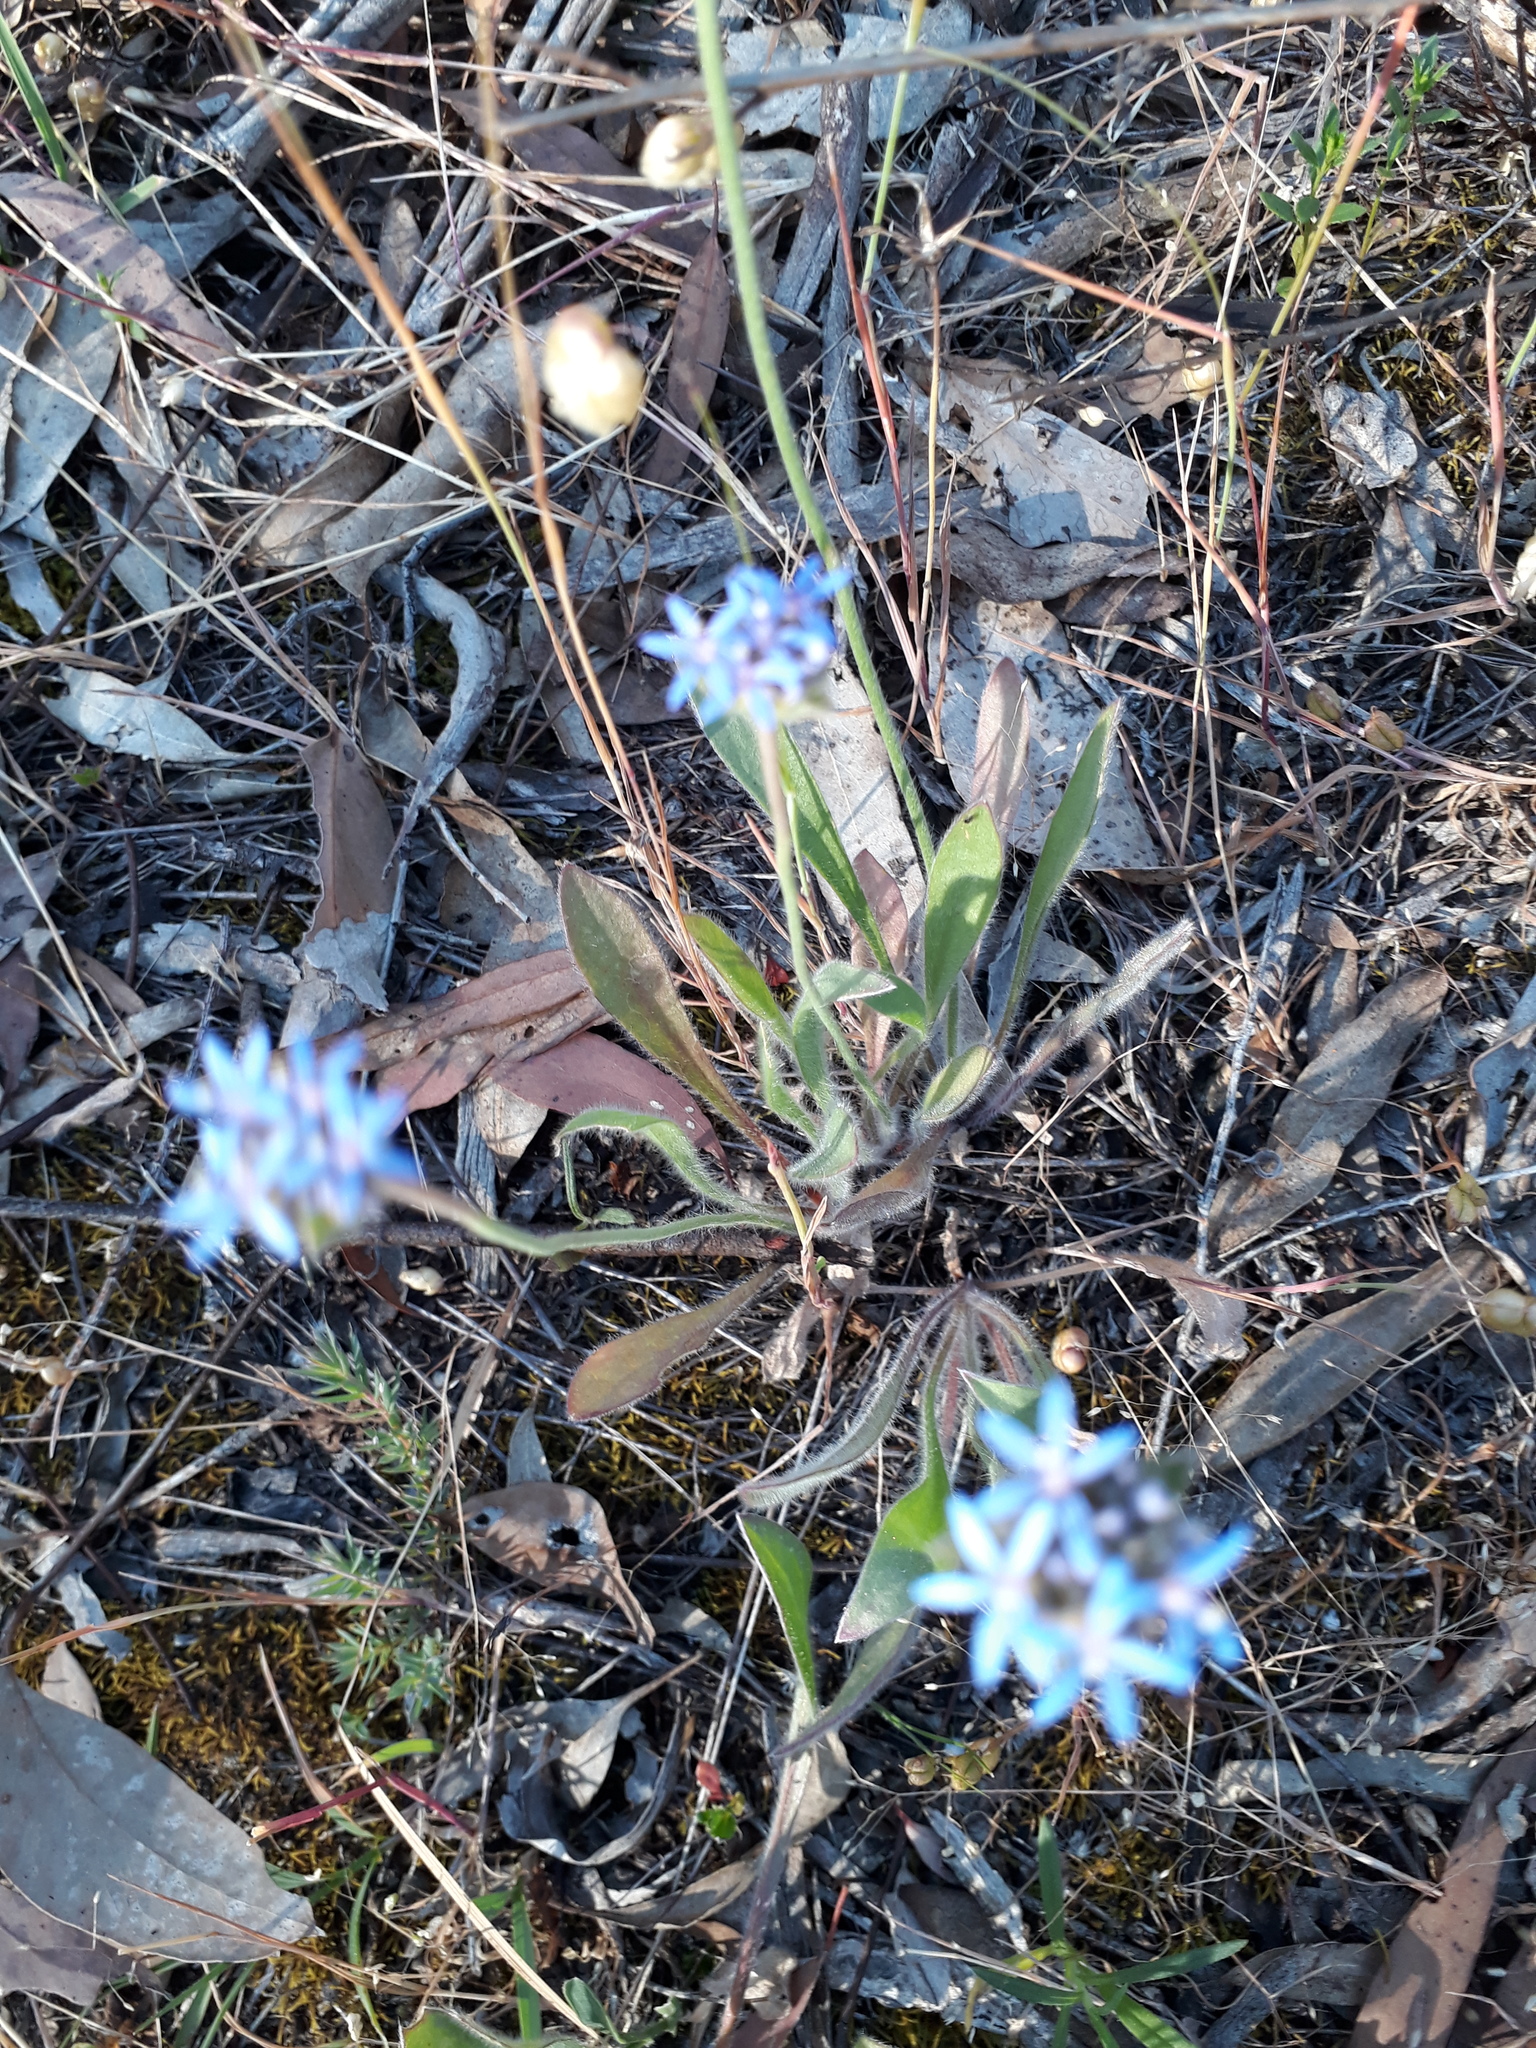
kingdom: Plantae
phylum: Tracheophyta
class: Magnoliopsida
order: Asterales
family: Goodeniaceae
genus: Brunonia
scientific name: Brunonia australis
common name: Blue pincushion
